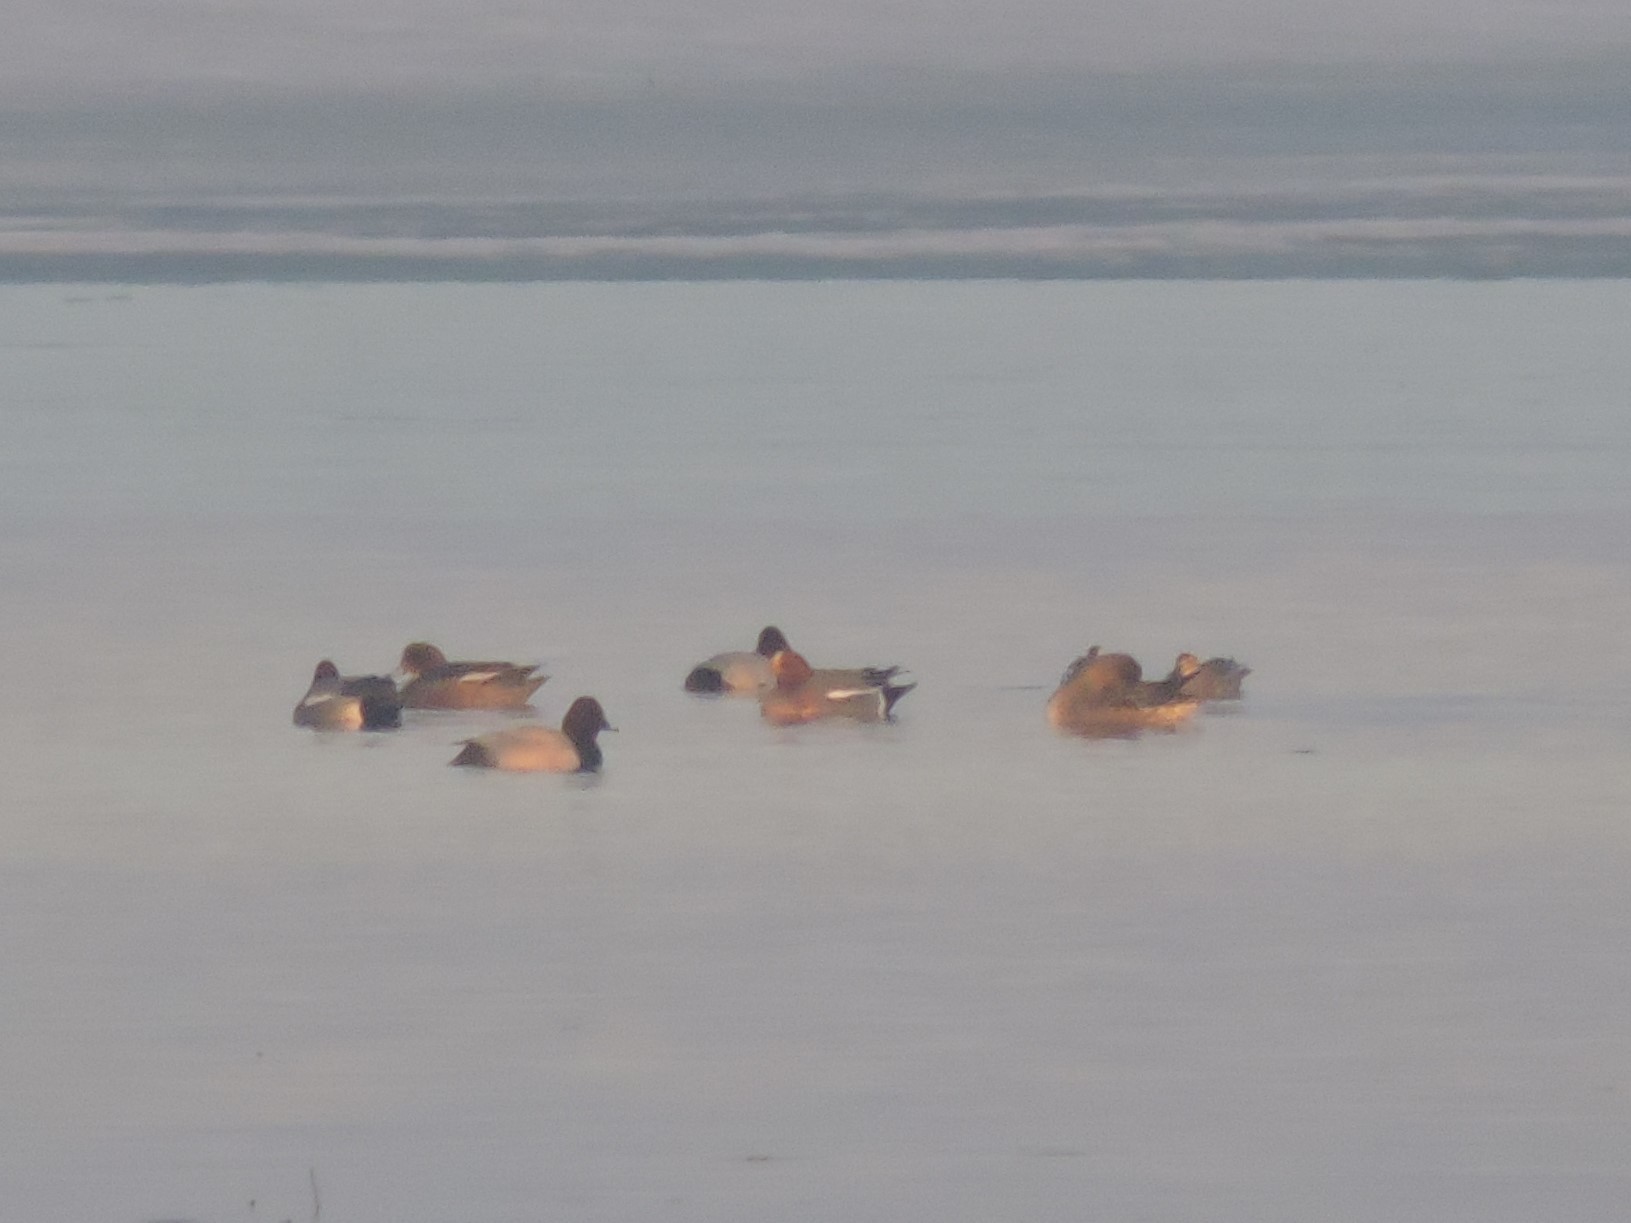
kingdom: Animalia
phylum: Chordata
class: Aves
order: Anseriformes
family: Anatidae
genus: Mareca
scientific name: Mareca penelope
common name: Eurasian wigeon
